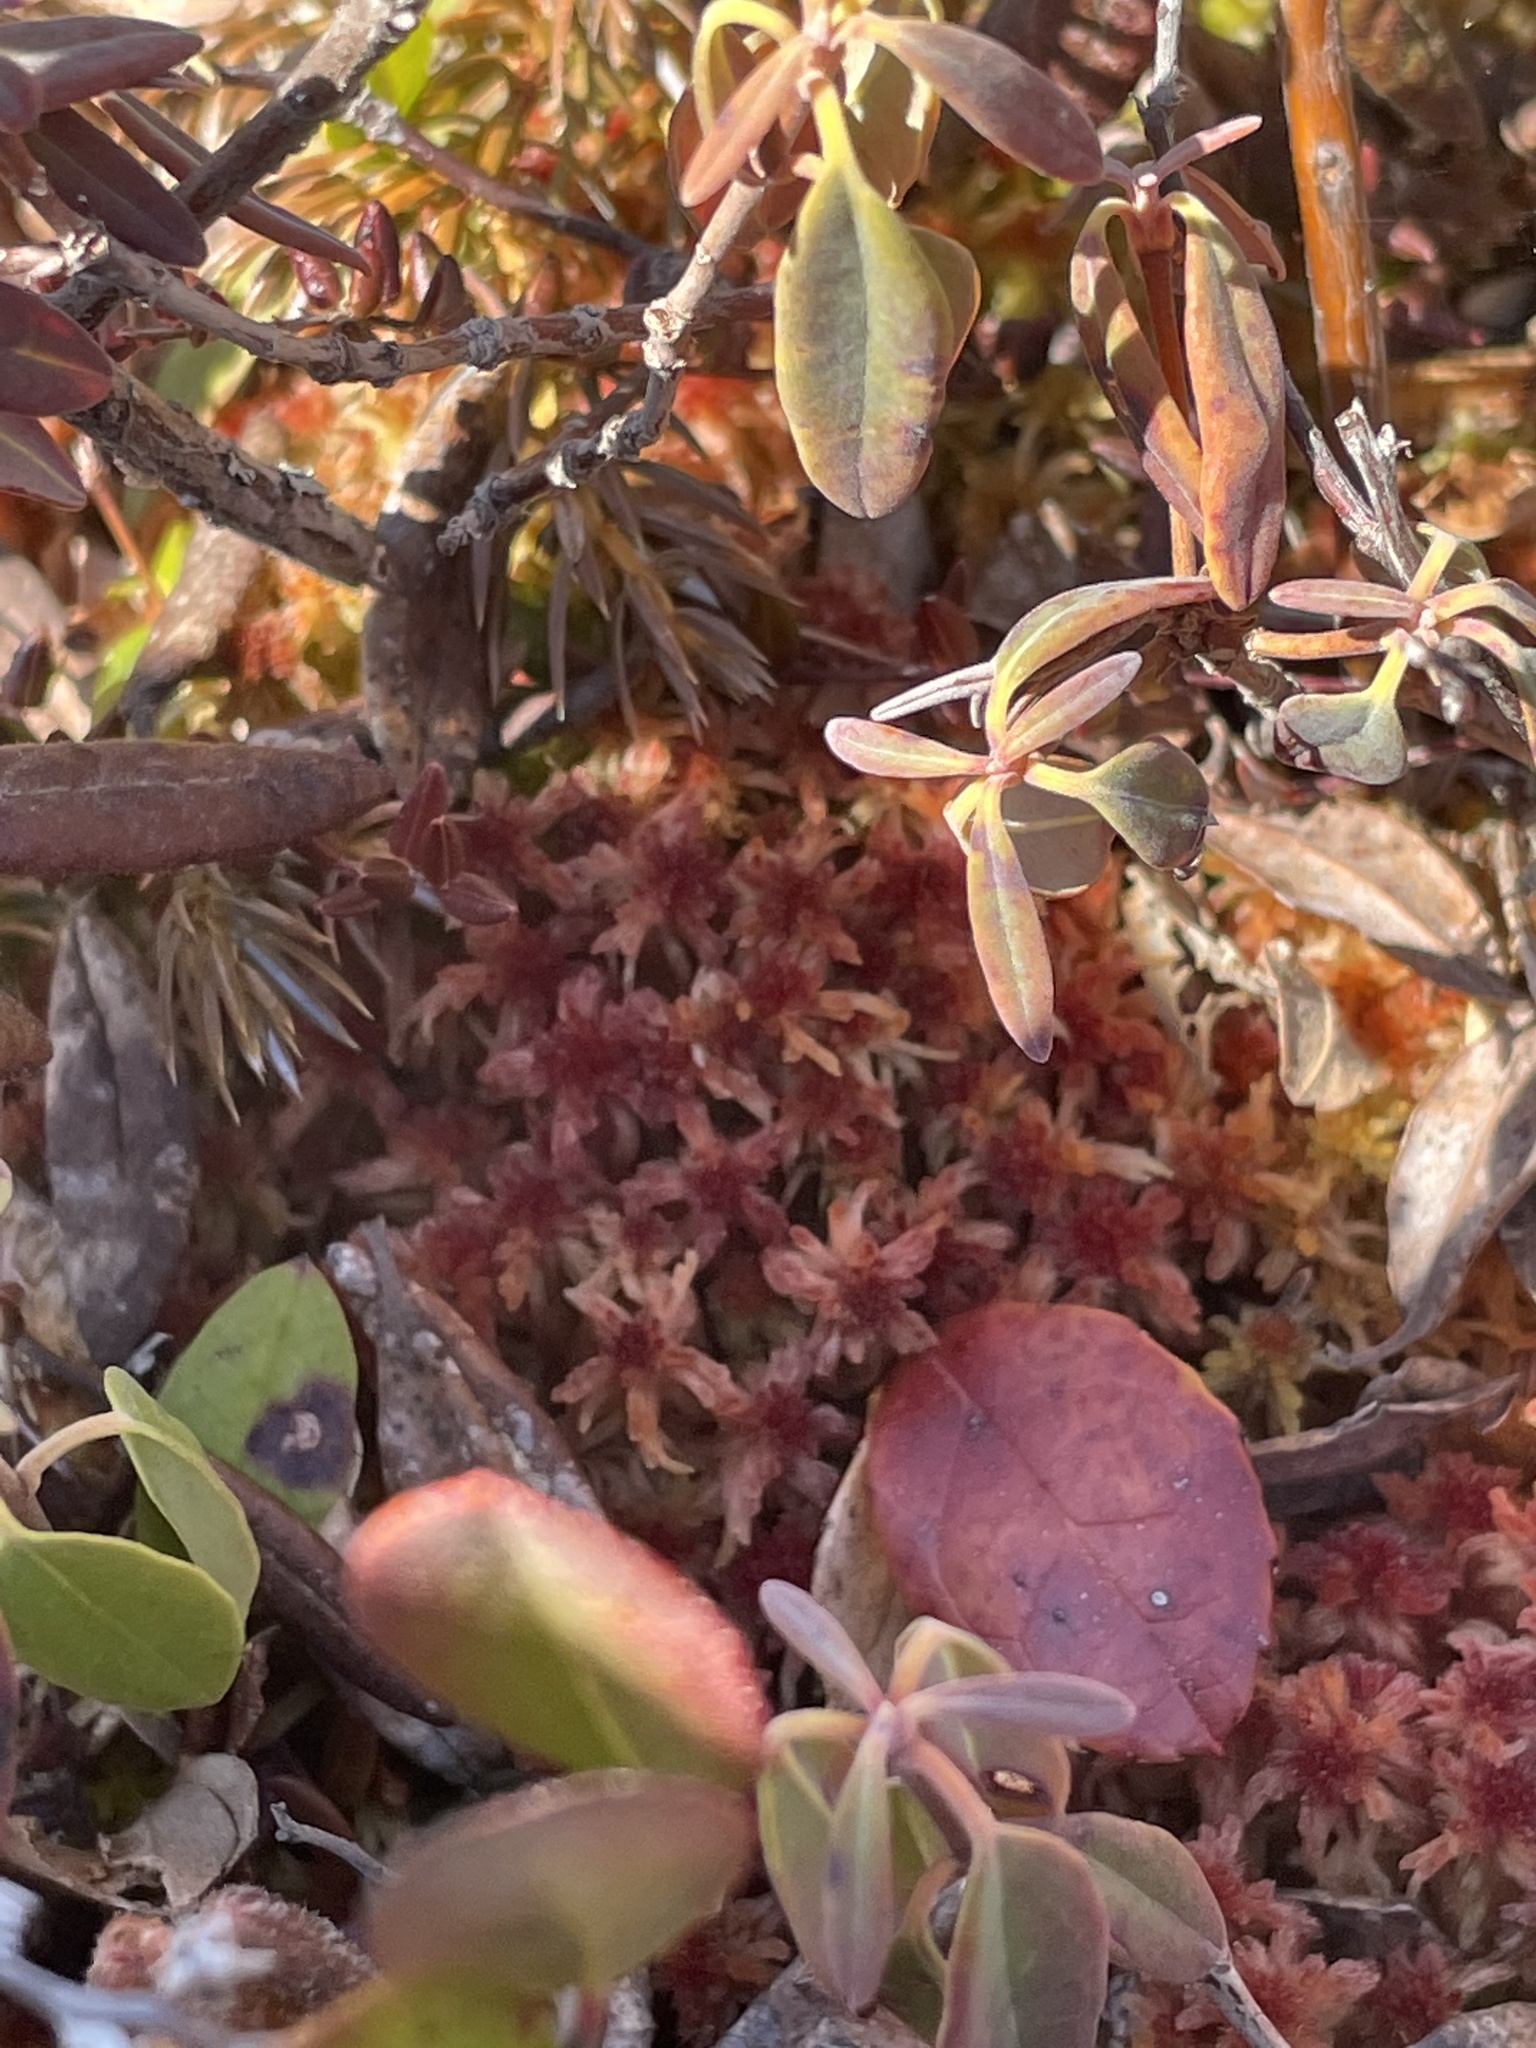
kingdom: Plantae
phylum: Bryophyta
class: Sphagnopsida
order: Sphagnales
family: Sphagnaceae
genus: Sphagnum
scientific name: Sphagnum rubellum
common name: Red peat moss
